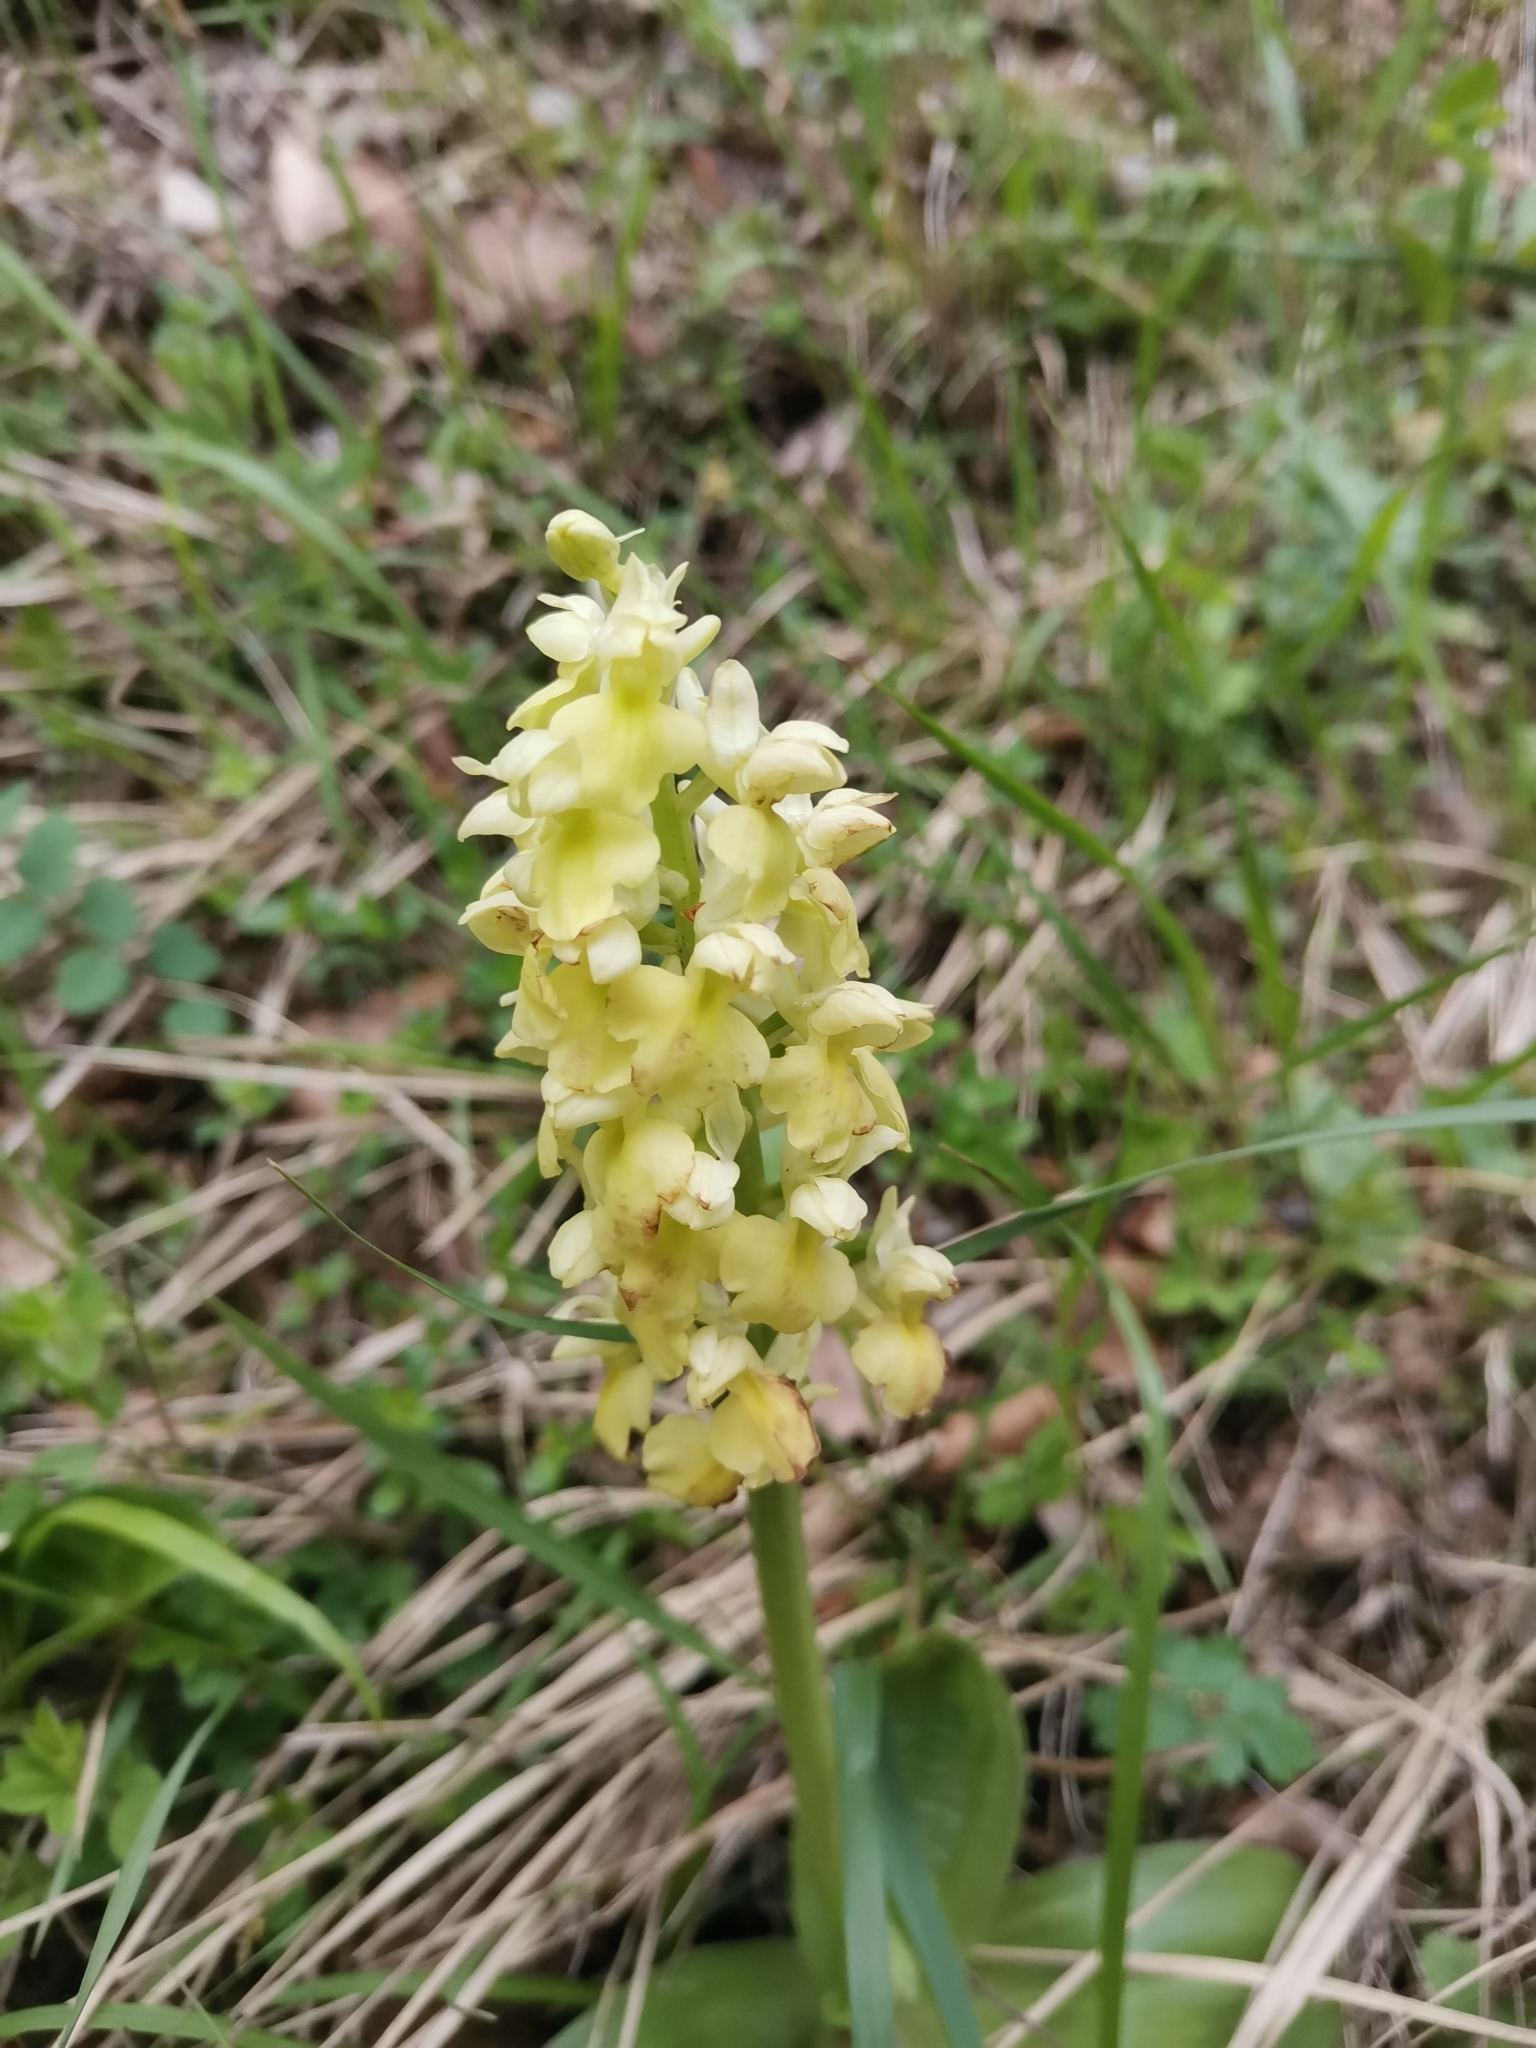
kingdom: Plantae
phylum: Tracheophyta
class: Liliopsida
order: Asparagales
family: Orchidaceae
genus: Orchis
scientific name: Orchis pallens
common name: Pale-flowered orchid
